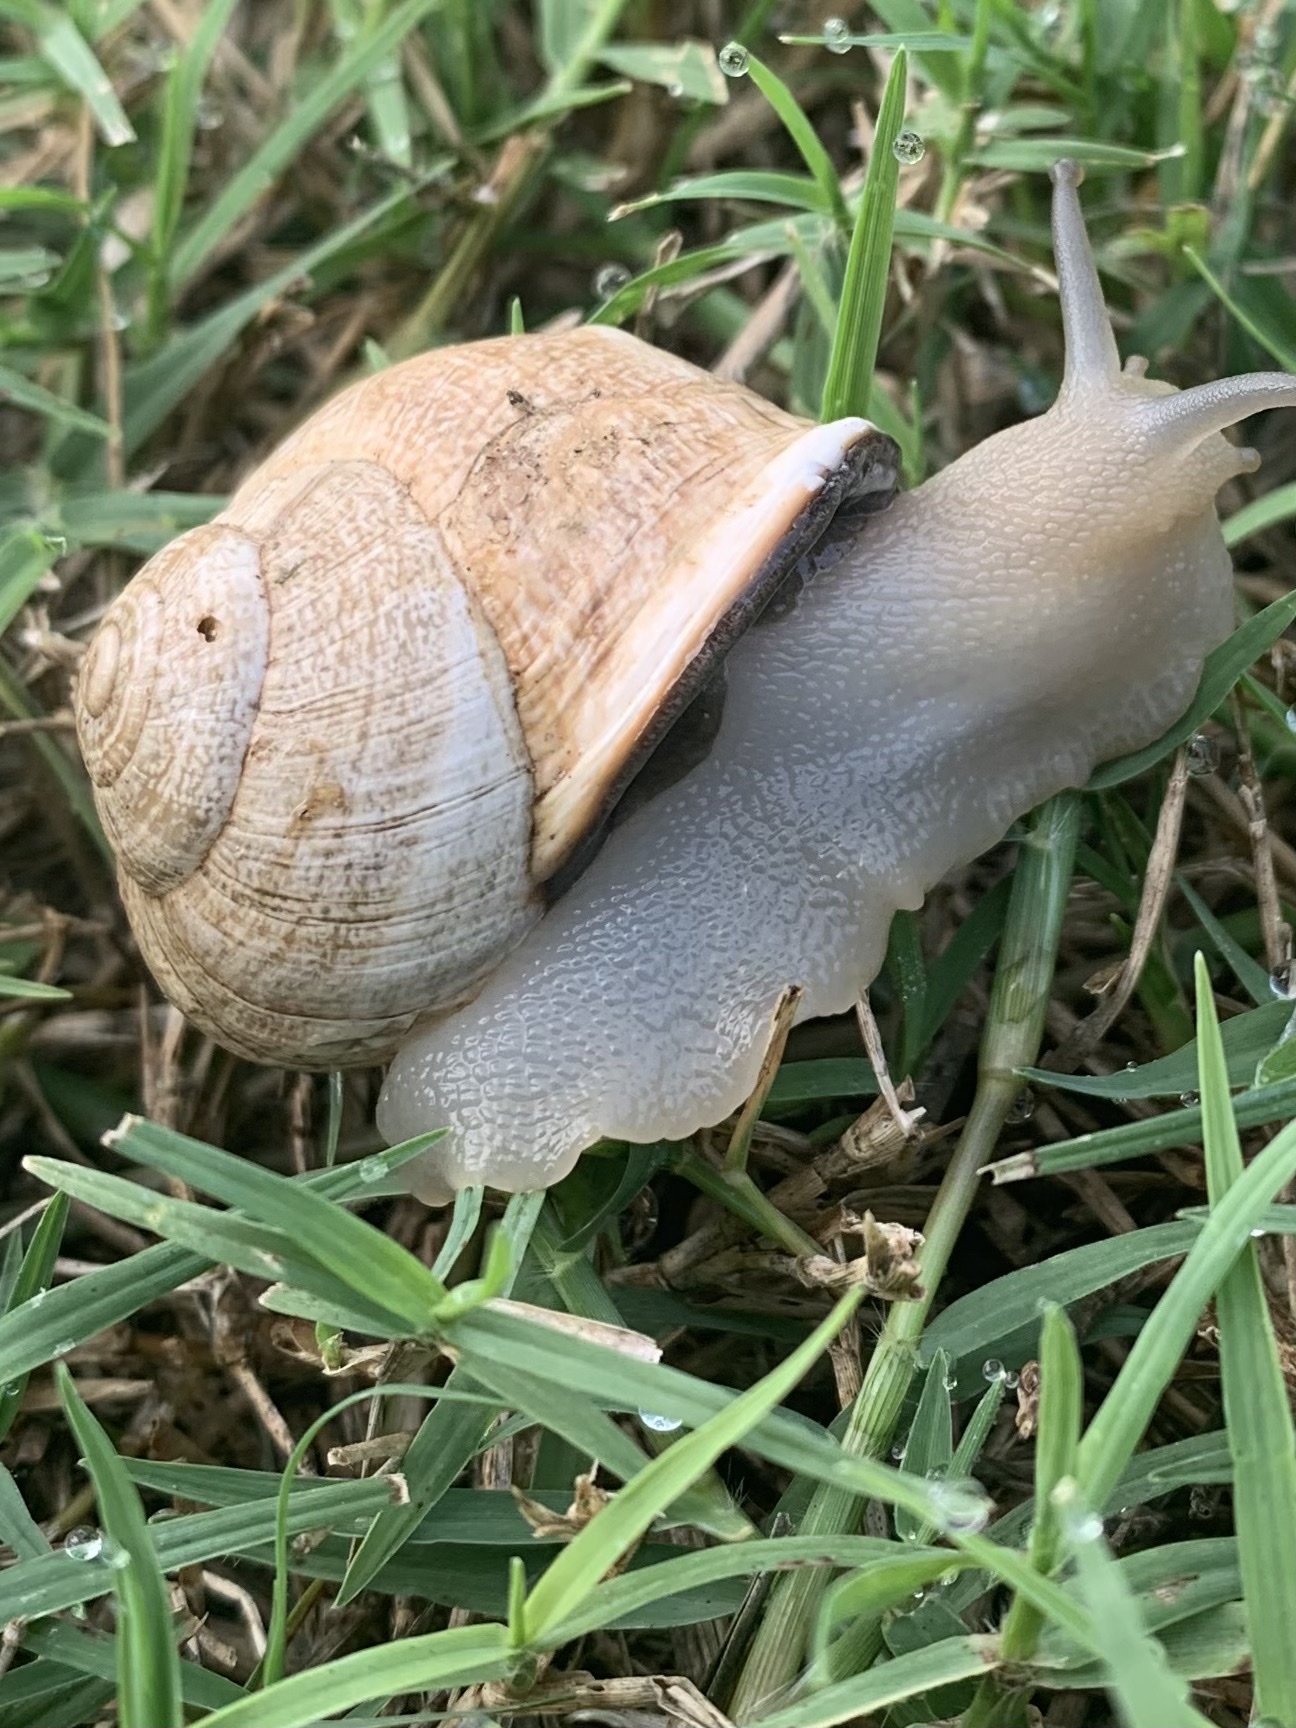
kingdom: Animalia
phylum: Mollusca
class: Gastropoda
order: Stylommatophora
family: Helicidae
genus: Otala
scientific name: Otala lactea
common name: Milk snail
